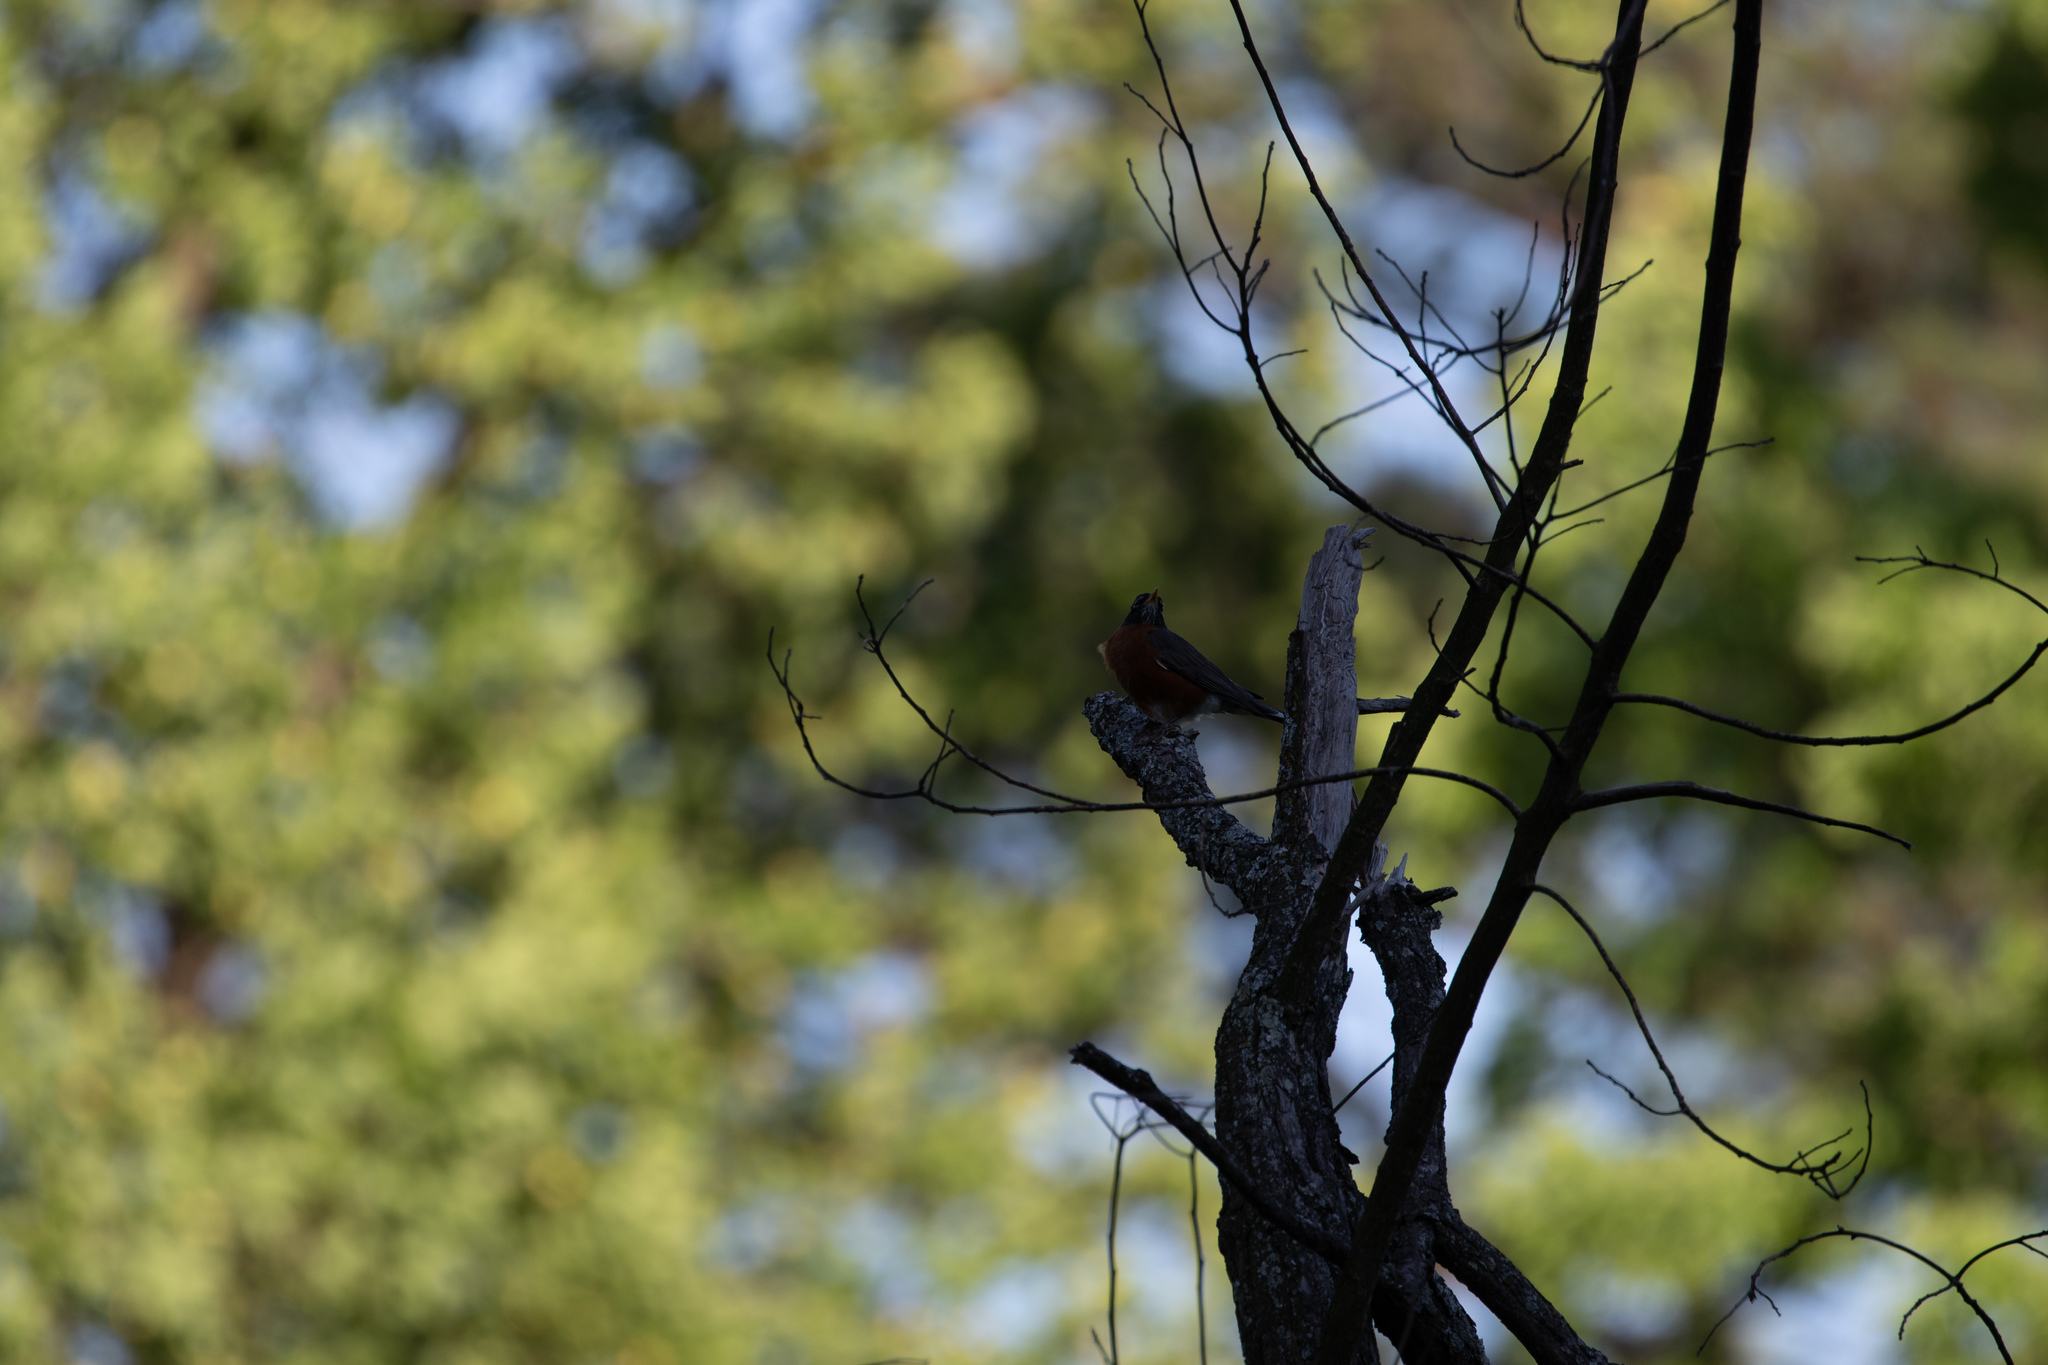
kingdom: Animalia
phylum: Chordata
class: Aves
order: Passeriformes
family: Turdidae
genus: Turdus
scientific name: Turdus migratorius
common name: American robin
